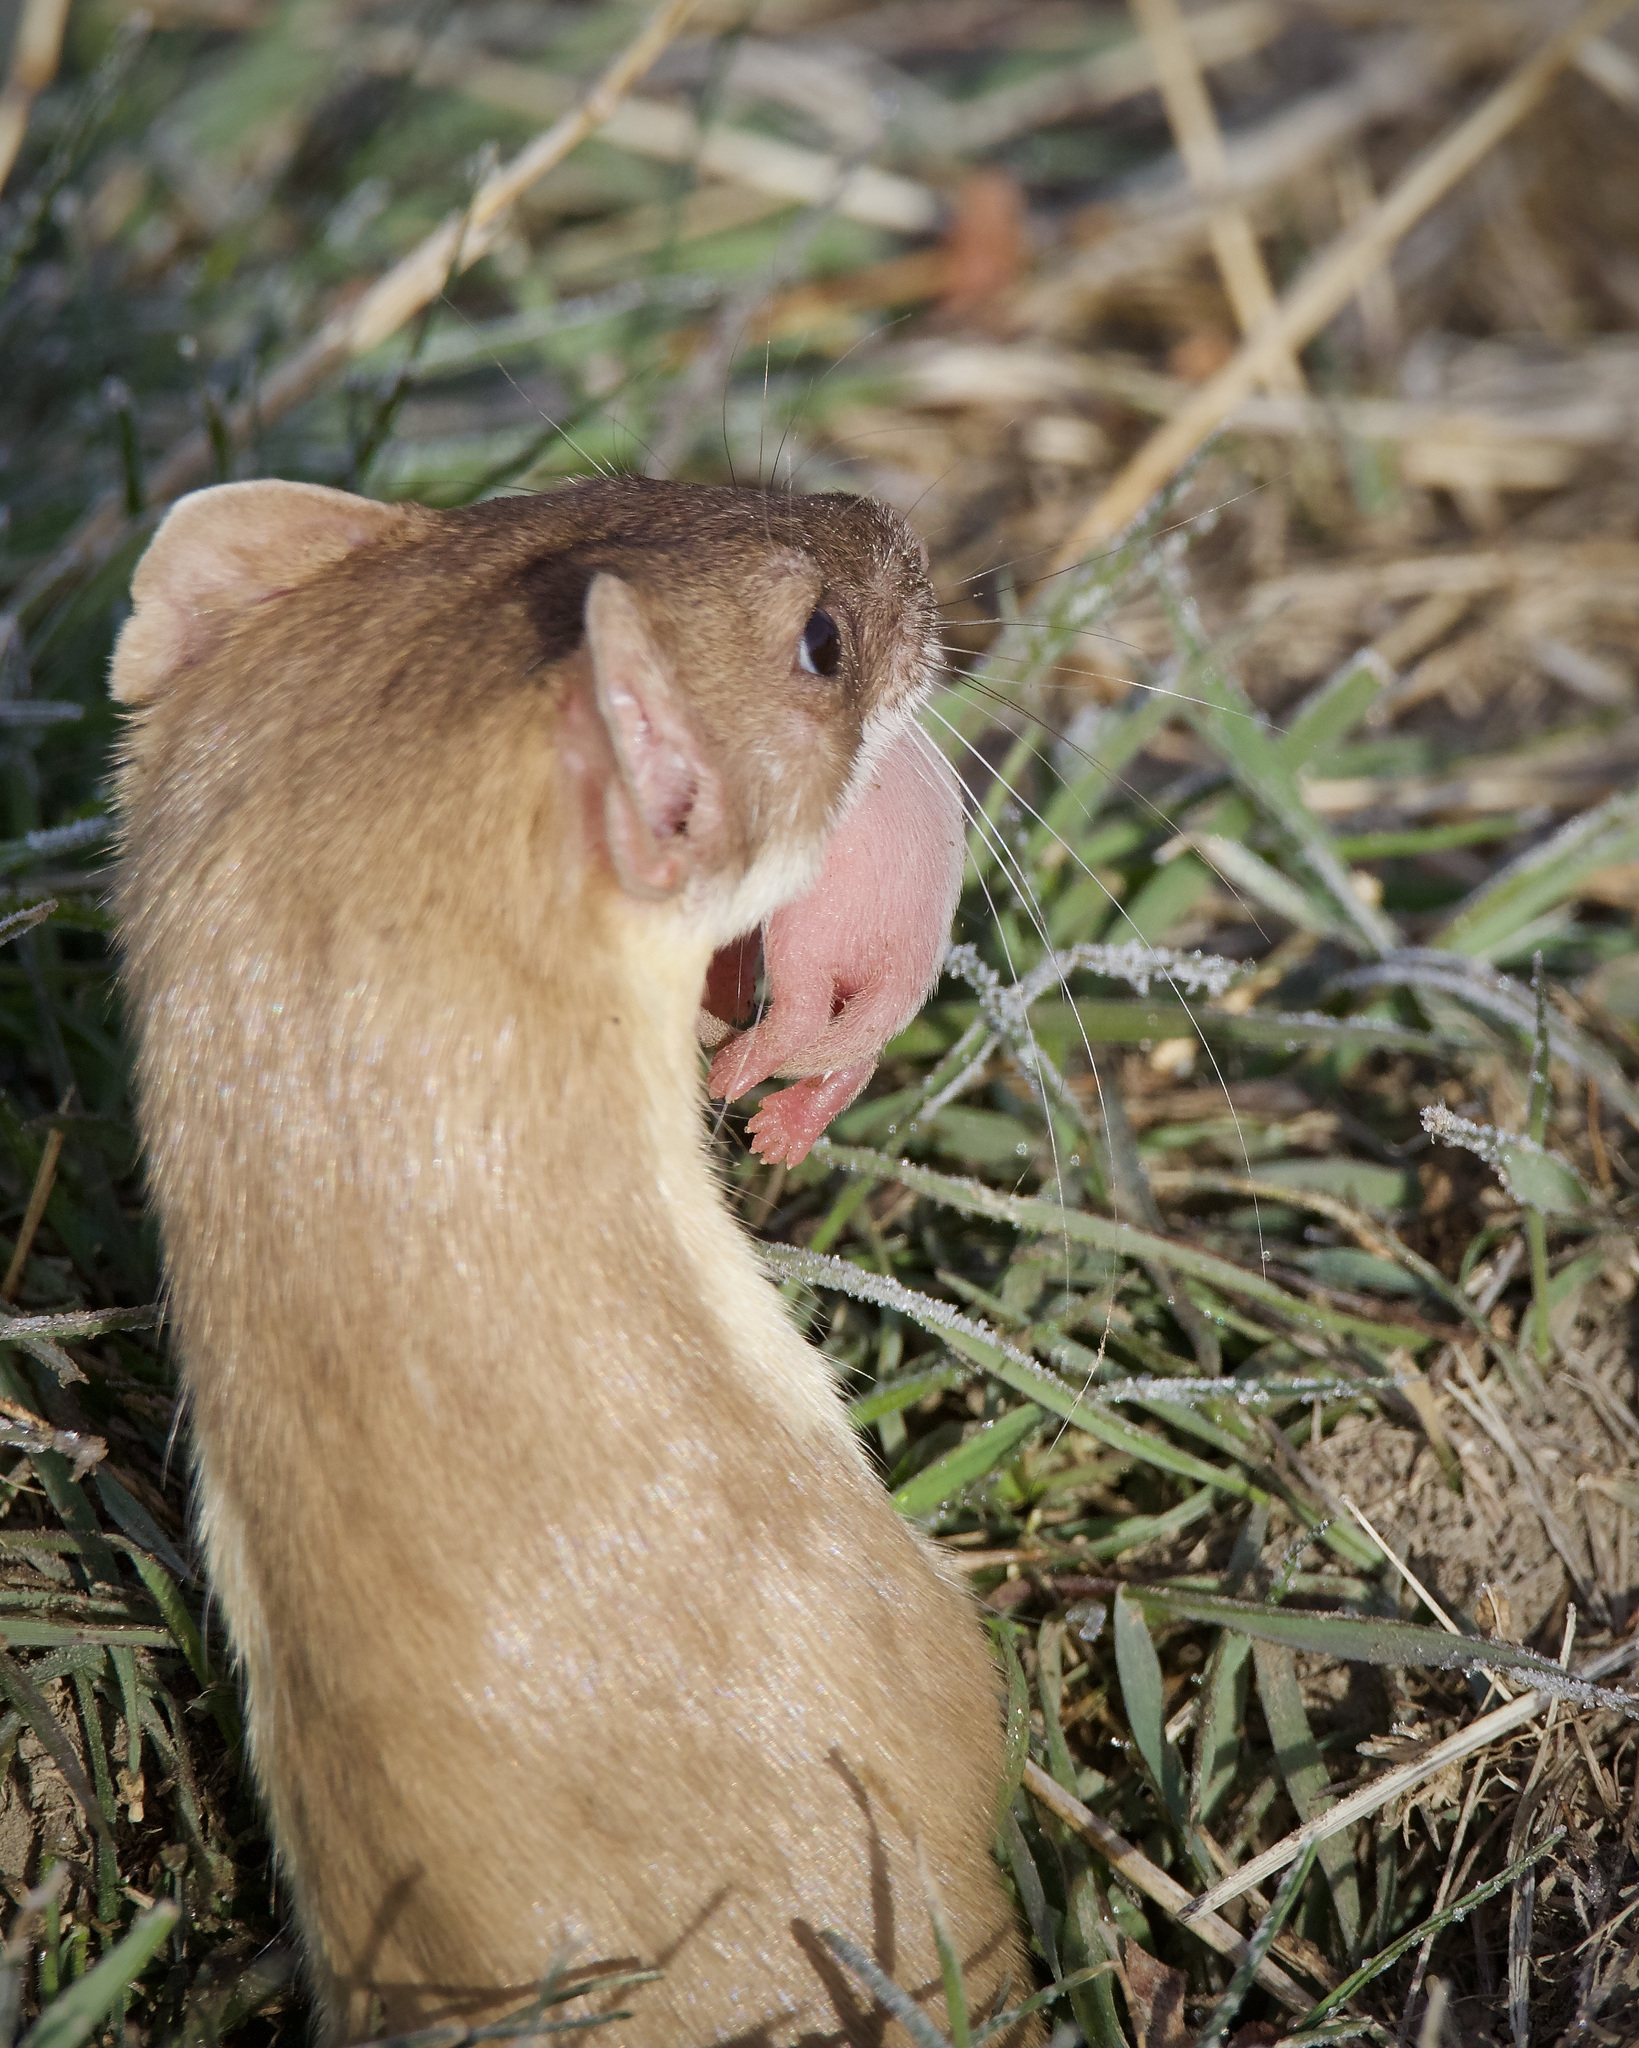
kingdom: Animalia
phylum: Chordata
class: Mammalia
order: Carnivora
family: Mustelidae
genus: Mustela
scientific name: Mustela
